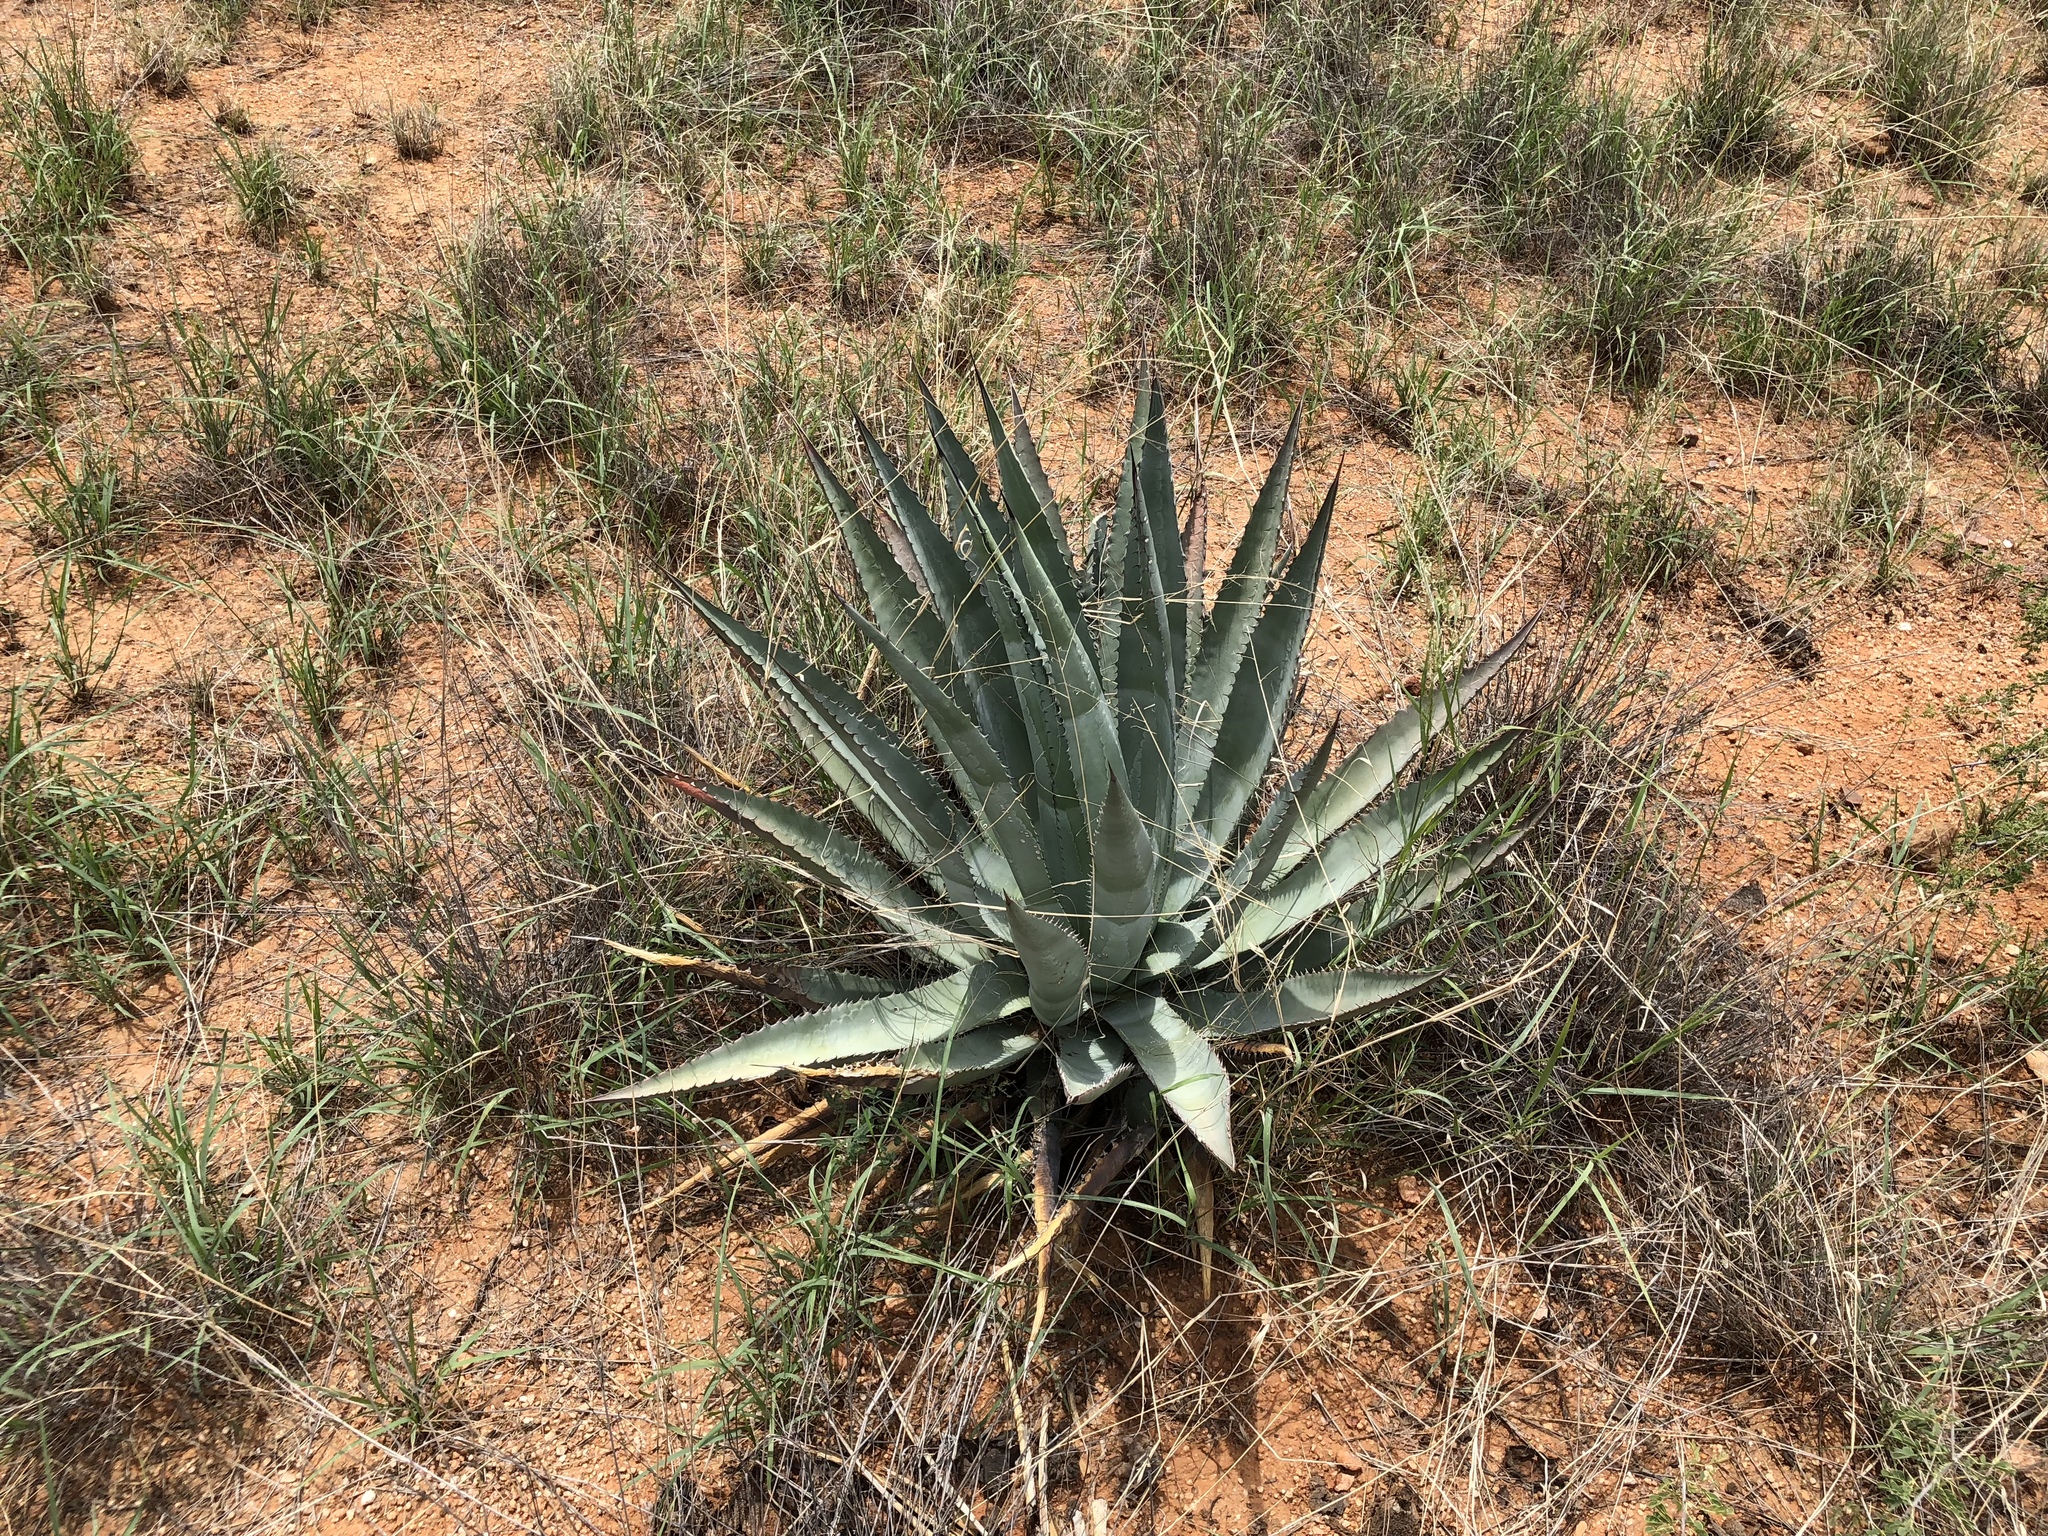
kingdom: Plantae
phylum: Tracheophyta
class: Liliopsida
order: Asparagales
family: Asparagaceae
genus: Agave
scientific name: Agave palmeri
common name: Palmer agave
